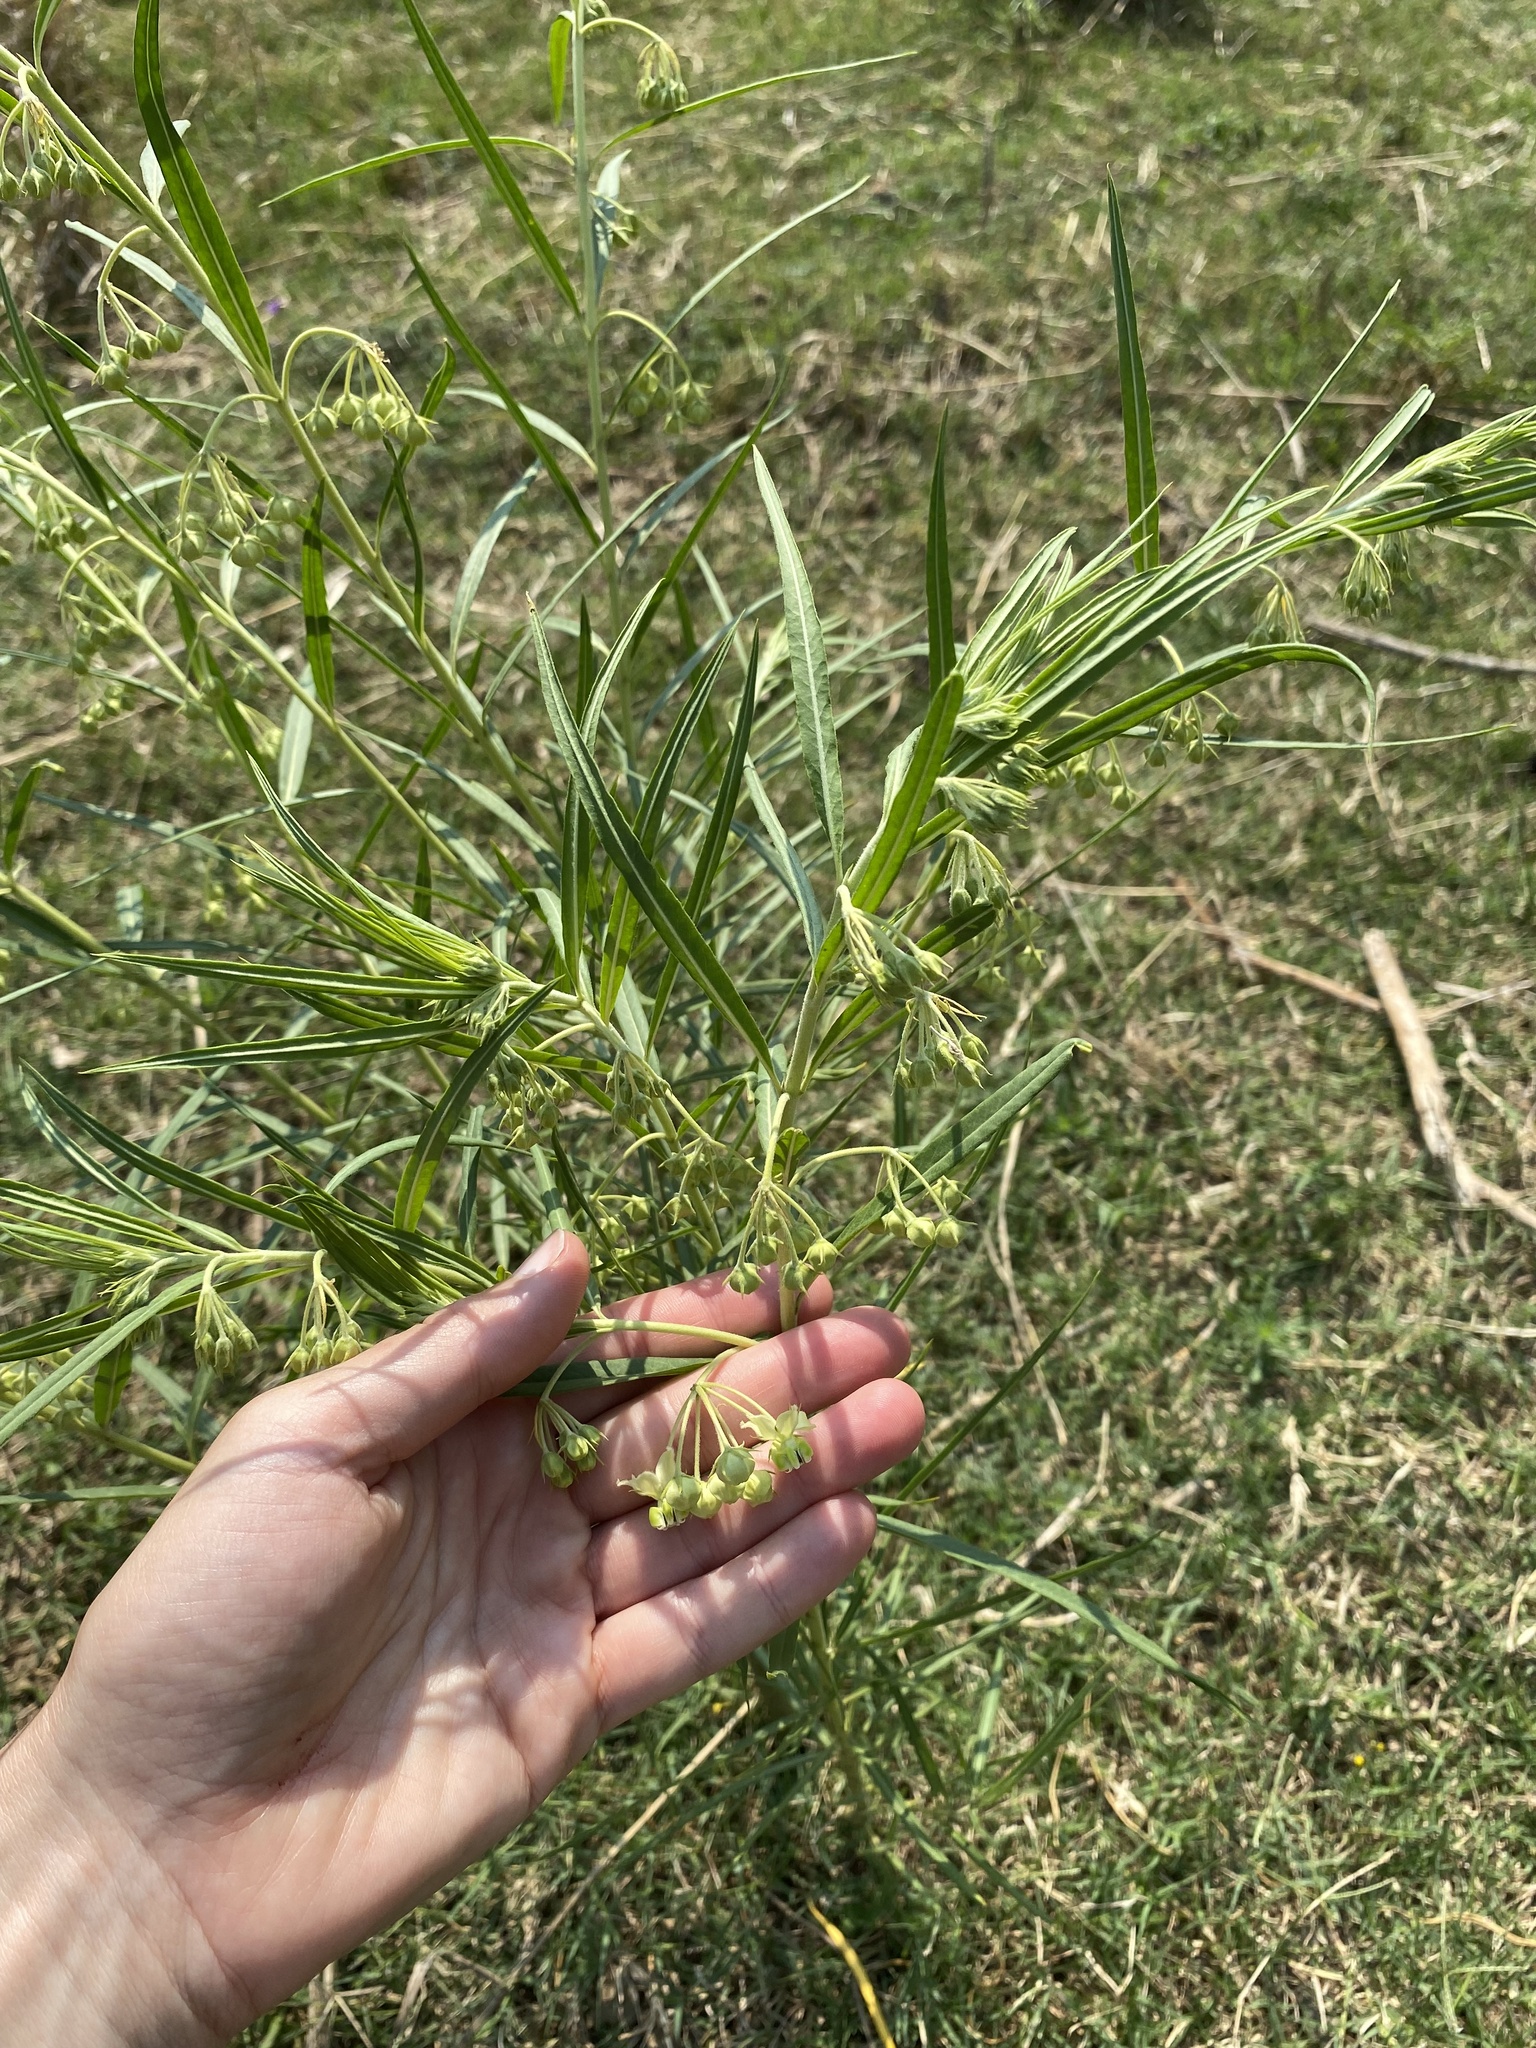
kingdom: Plantae
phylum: Tracheophyta
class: Magnoliopsida
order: Gentianales
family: Apocynaceae
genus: Gomphocarpus
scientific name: Gomphocarpus fruticosus
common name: Milkweed
